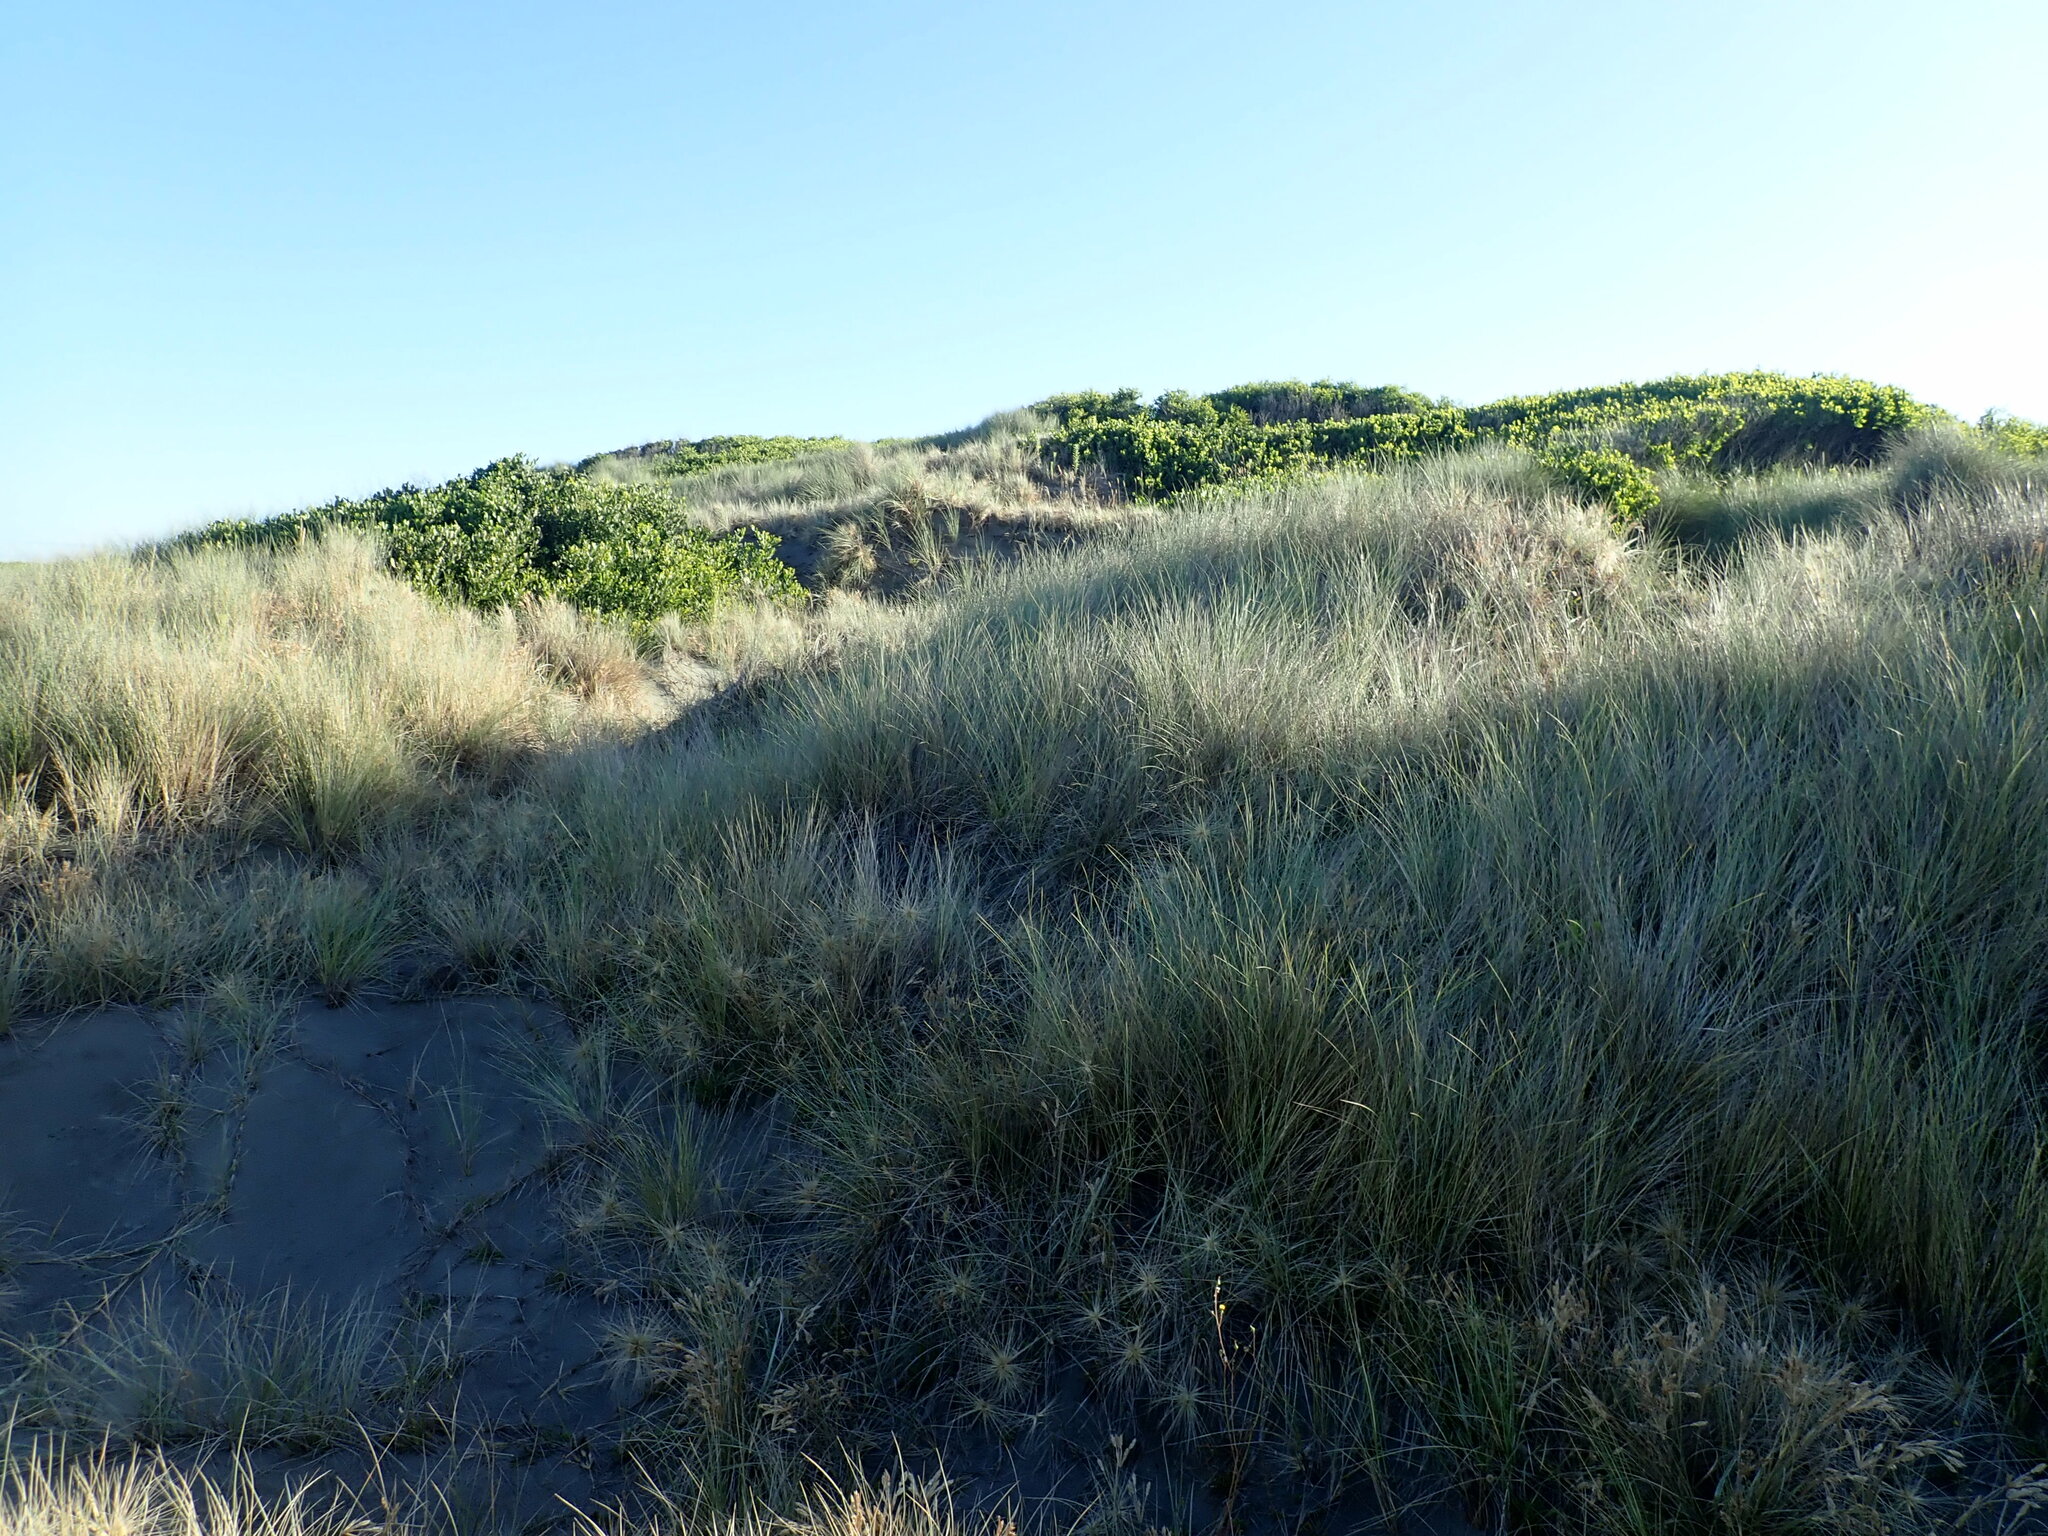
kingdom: Plantae
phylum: Tracheophyta
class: Magnoliopsida
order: Fabales
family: Fabaceae
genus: Acacia
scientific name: Acacia longifolia
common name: Sydney golden wattle
